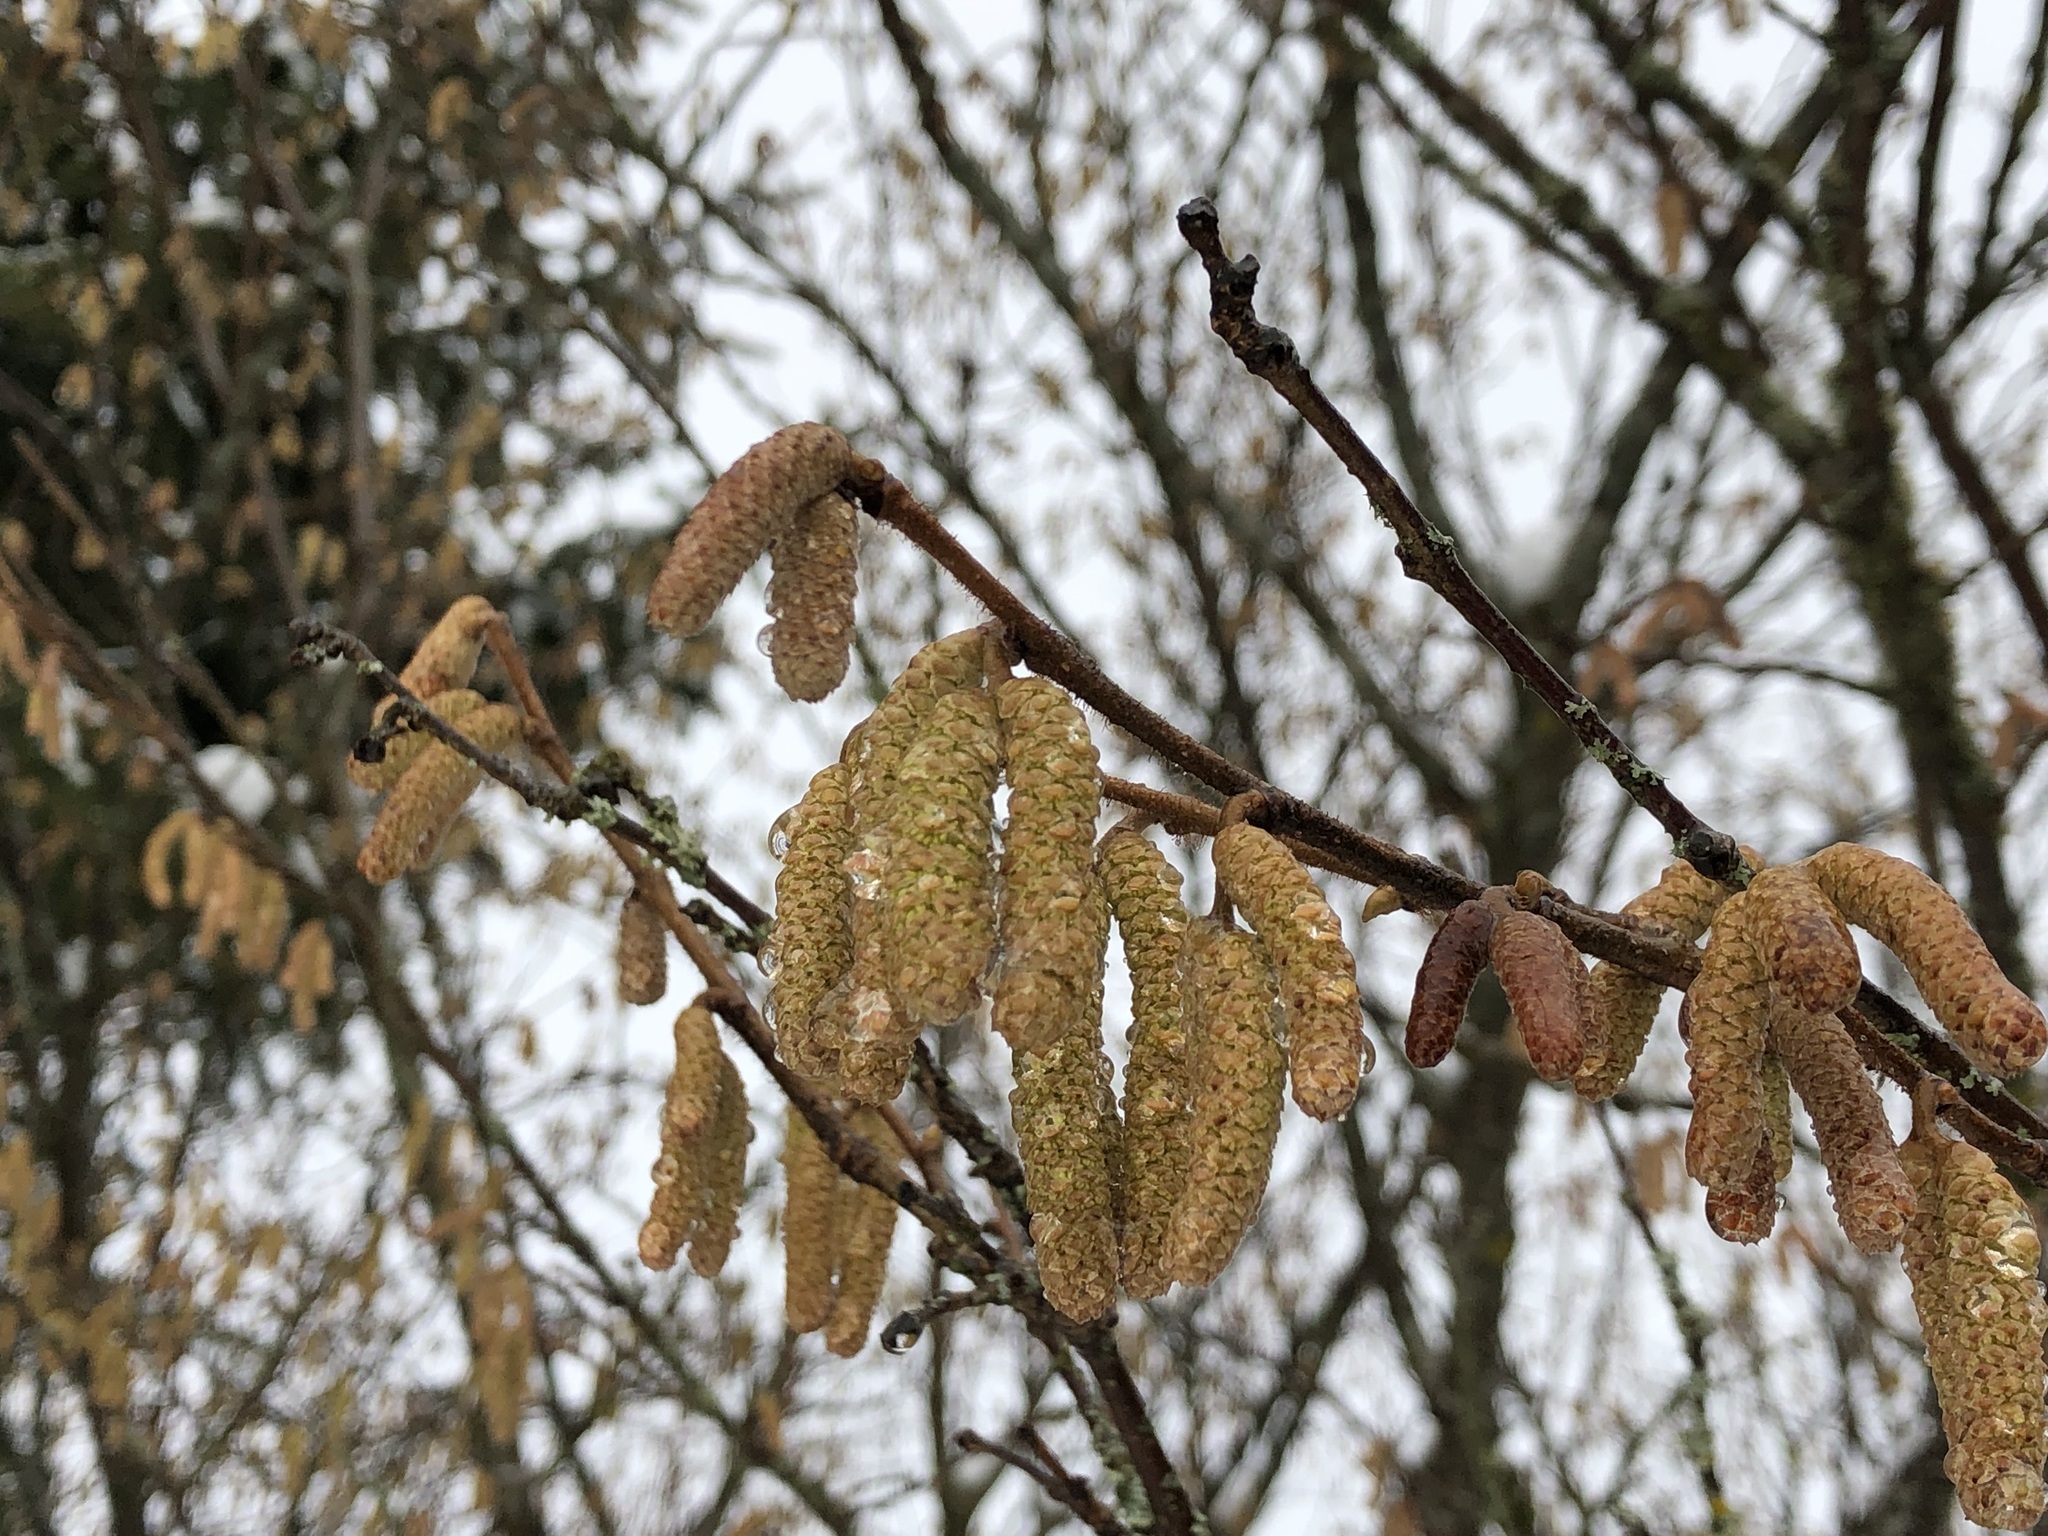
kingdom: Plantae
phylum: Tracheophyta
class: Magnoliopsida
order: Fagales
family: Betulaceae
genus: Corylus
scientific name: Corylus avellana
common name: European hazel
